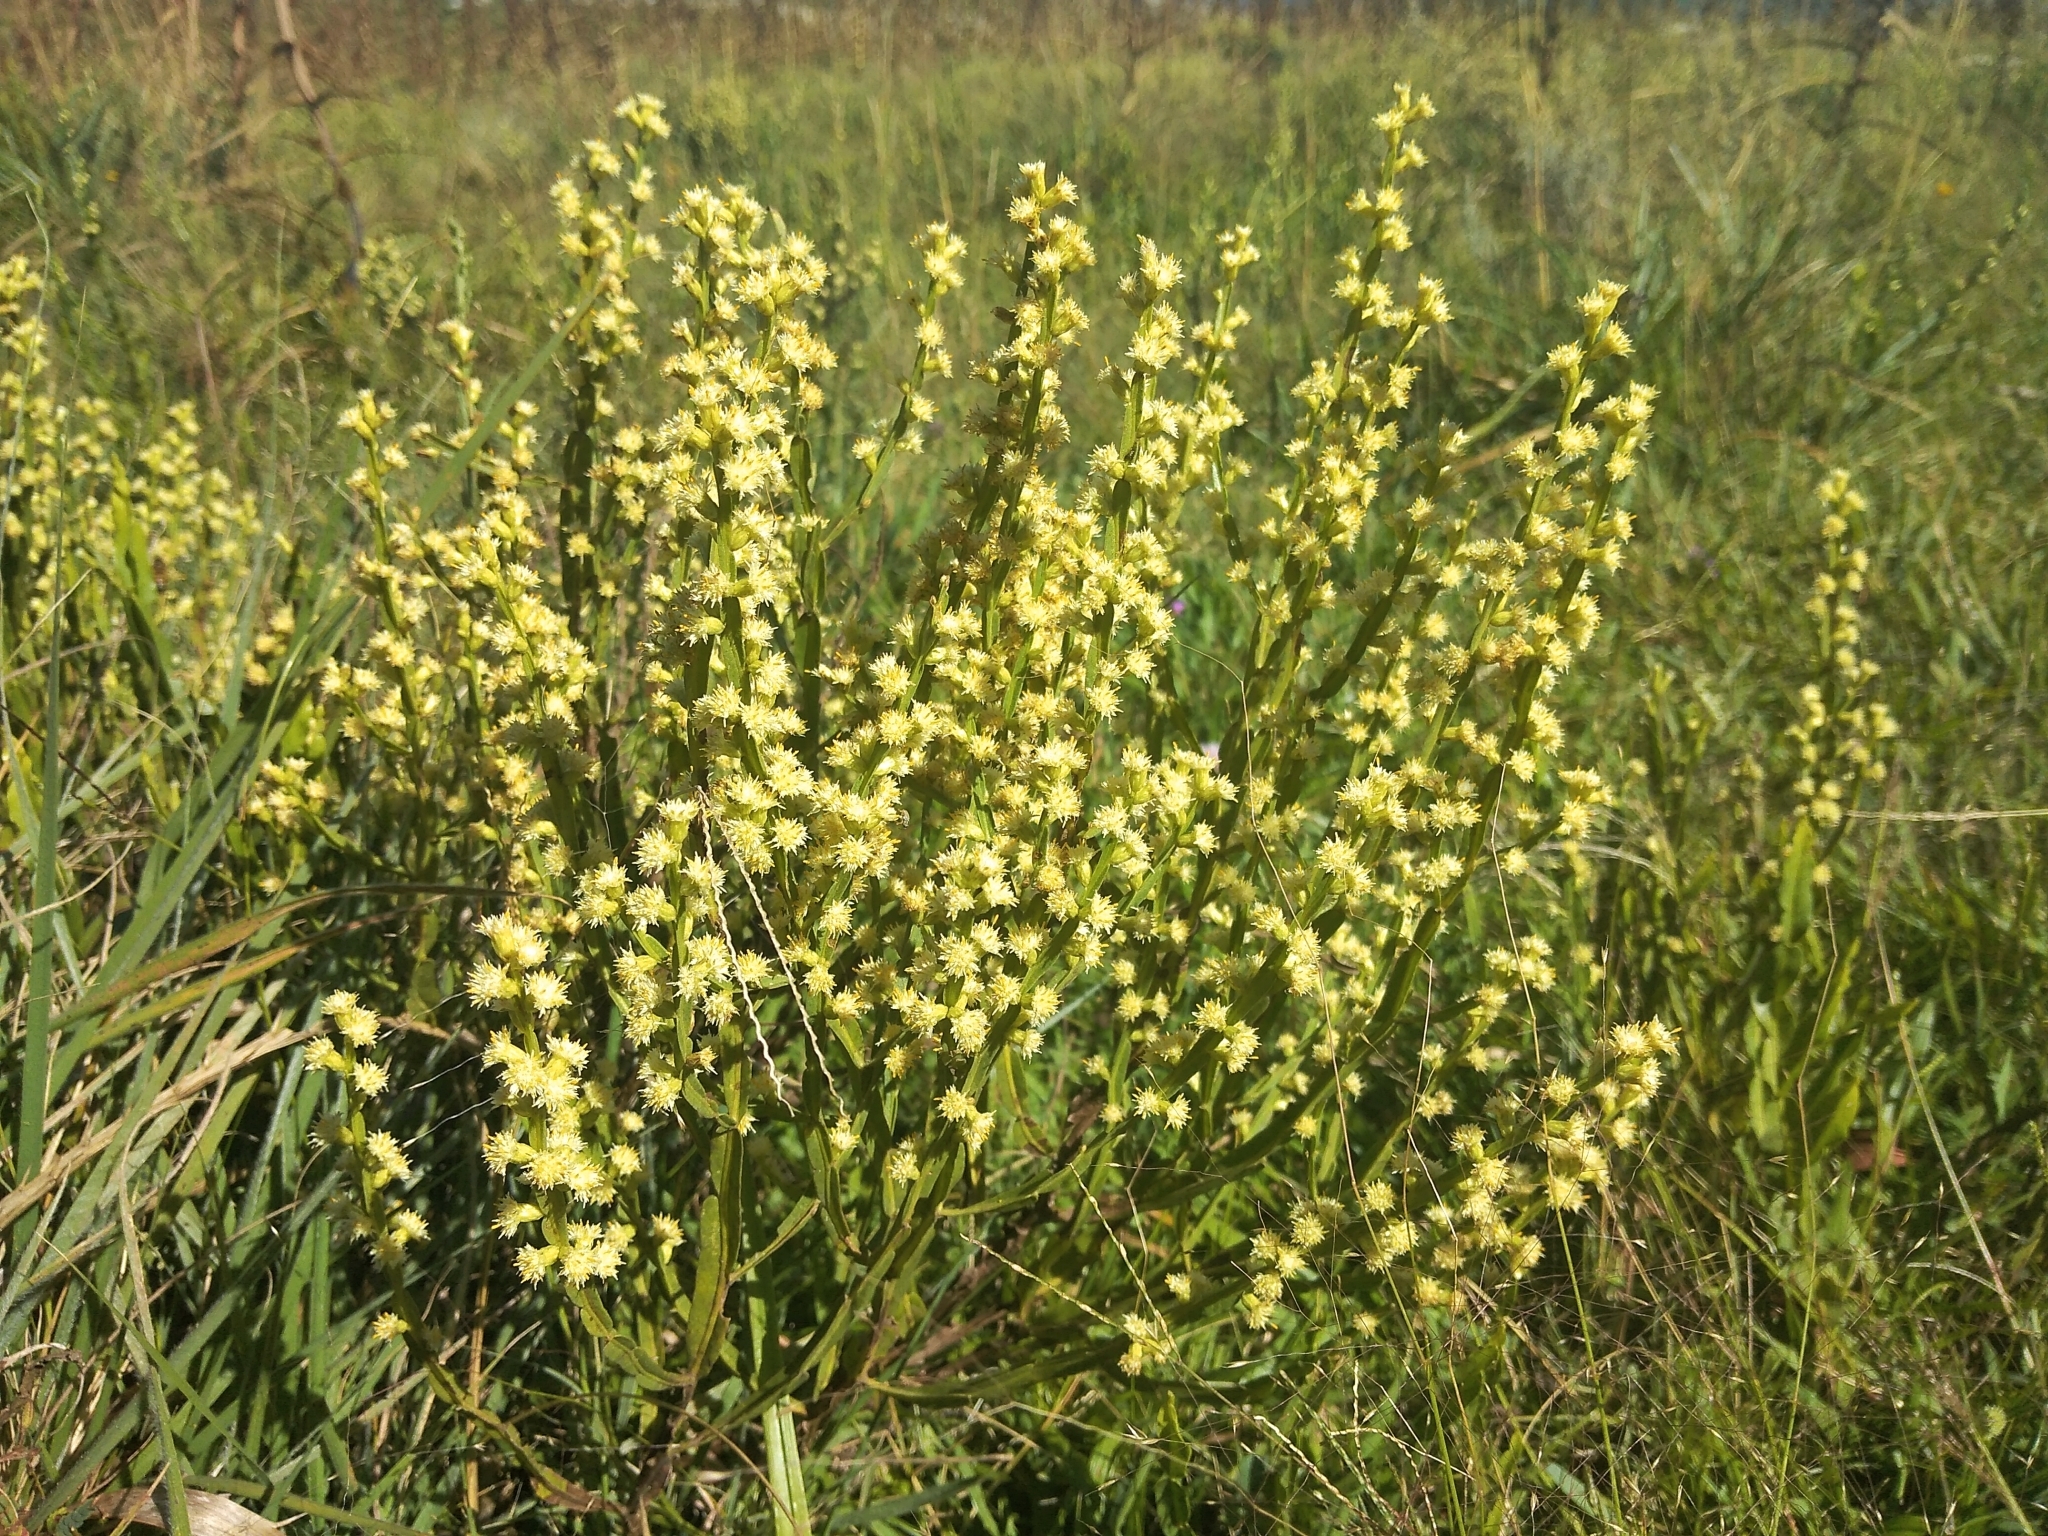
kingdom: Plantae
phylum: Tracheophyta
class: Magnoliopsida
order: Asterales
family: Asteraceae
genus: Baccharis
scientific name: Baccharis trimera
